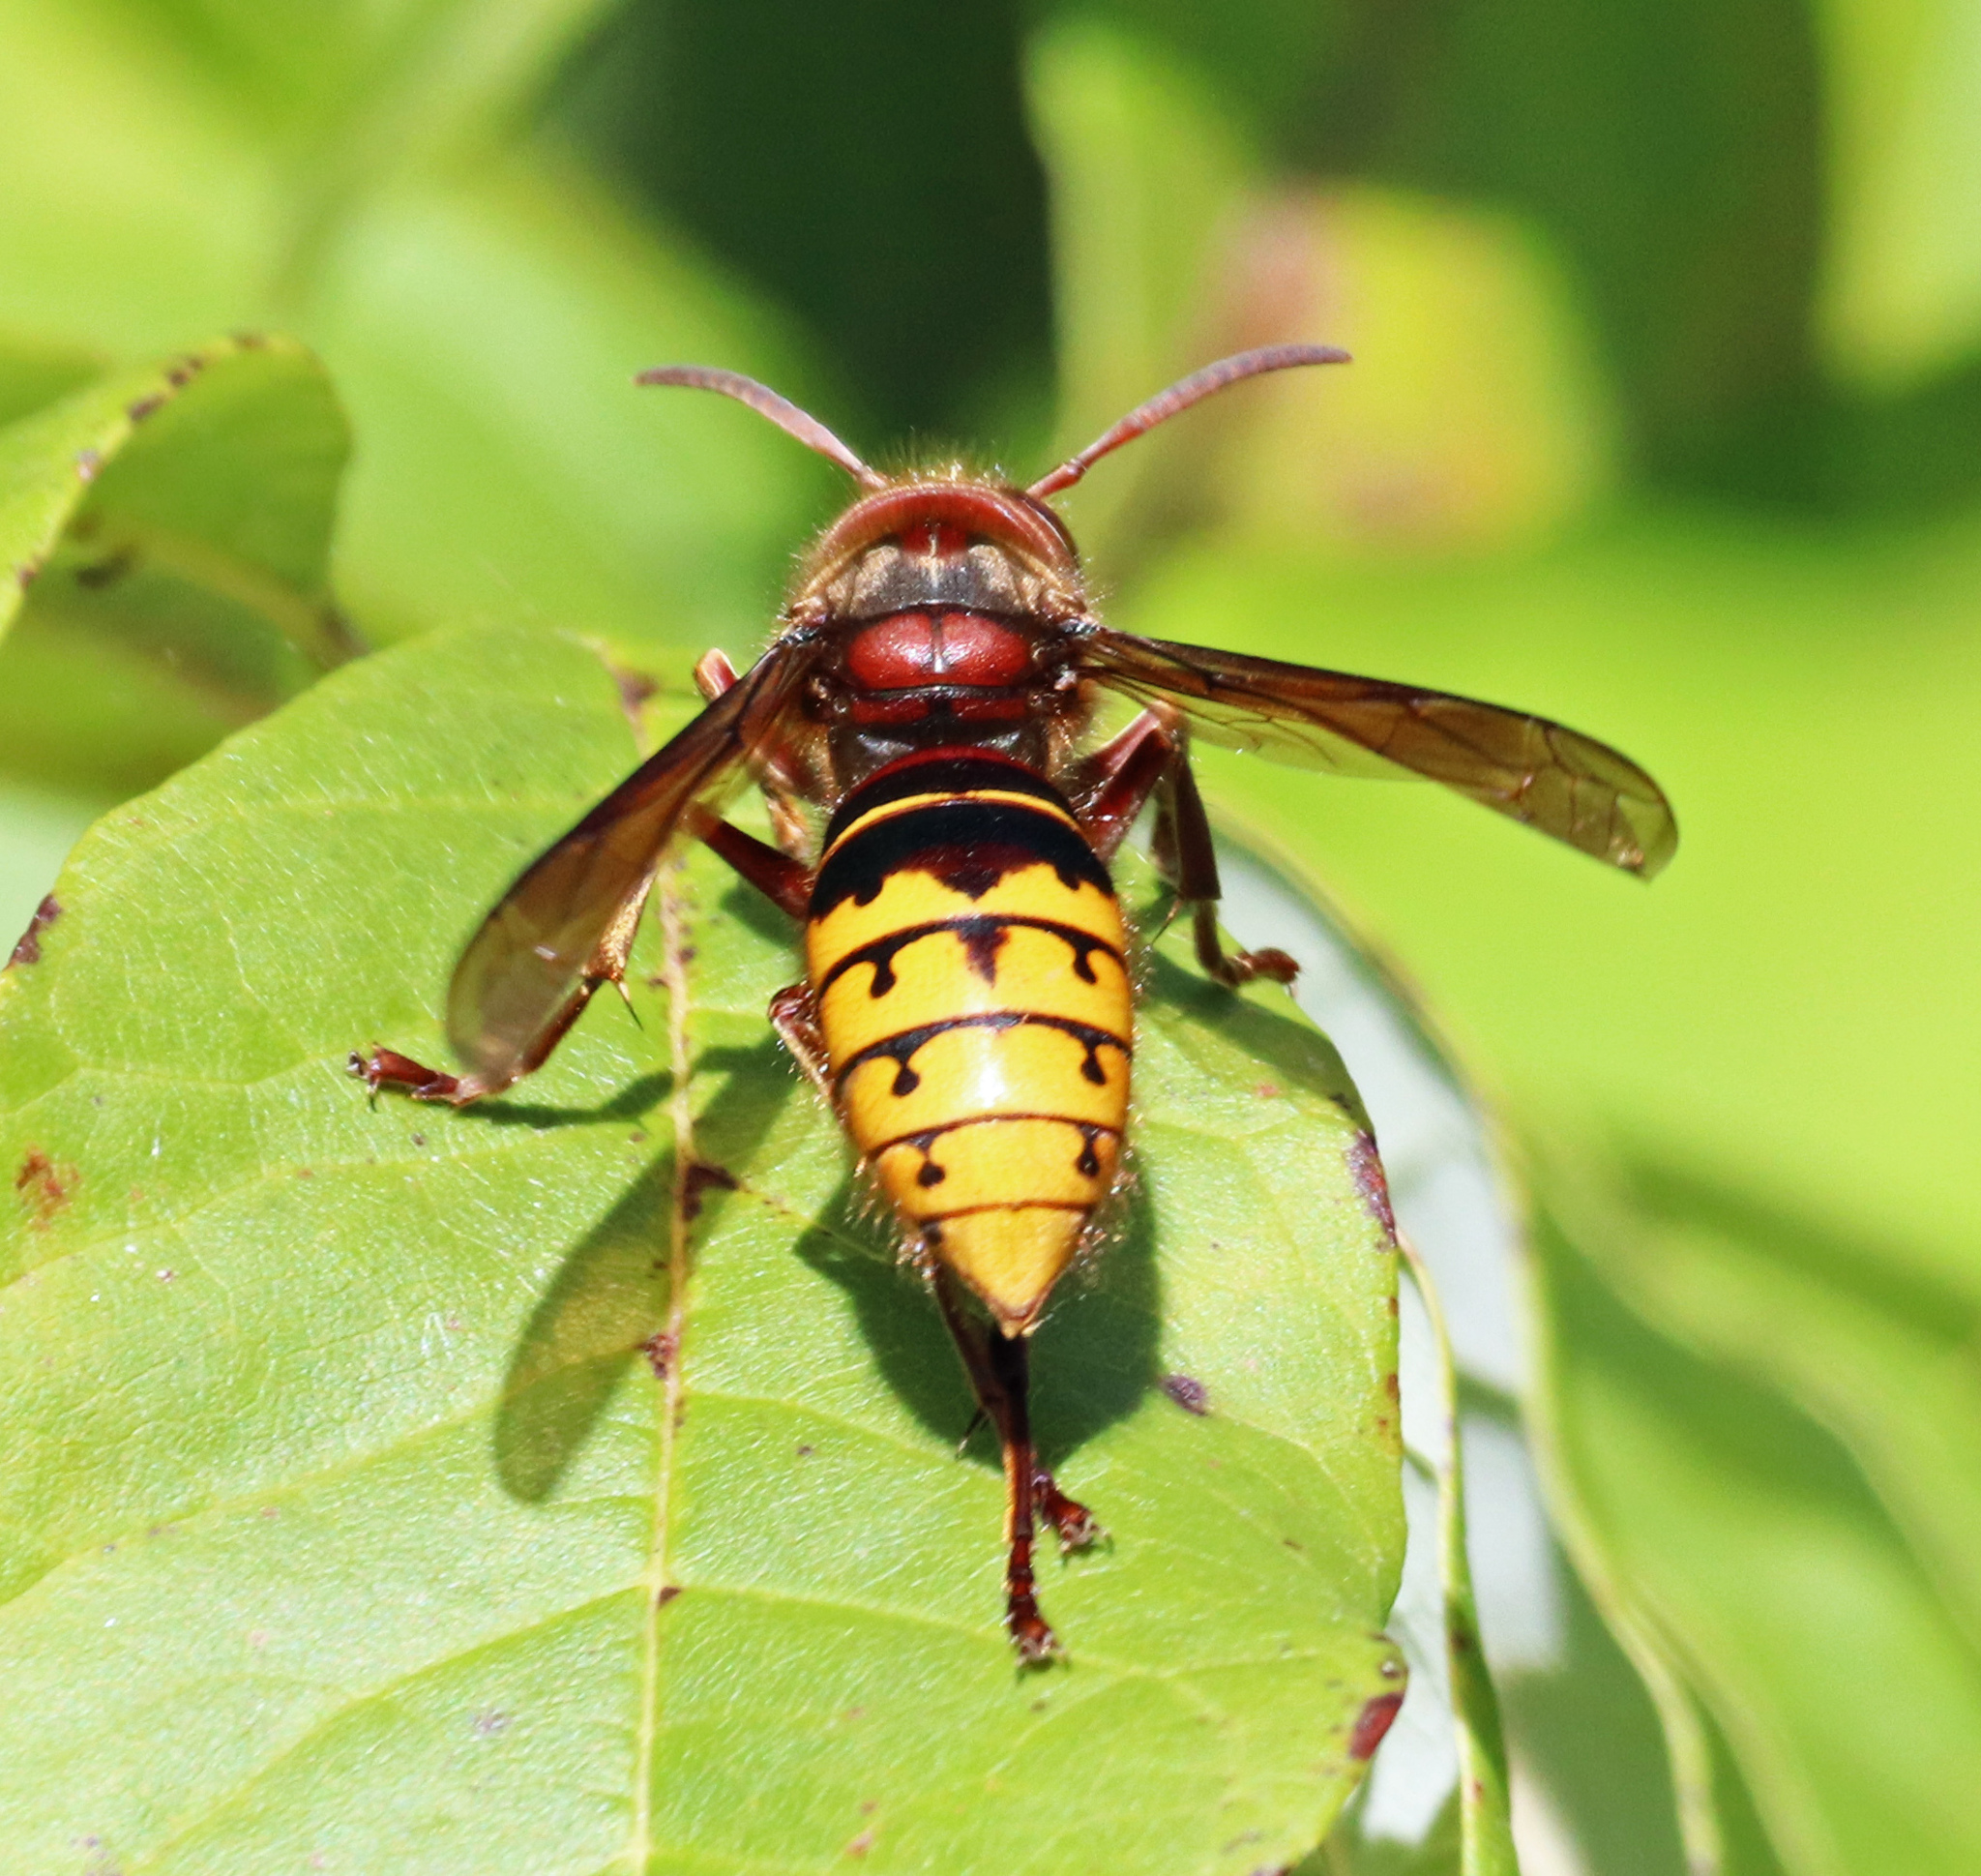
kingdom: Animalia
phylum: Arthropoda
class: Insecta
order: Hymenoptera
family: Vespidae
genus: Vespa
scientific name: Vespa crabro
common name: Hornet
